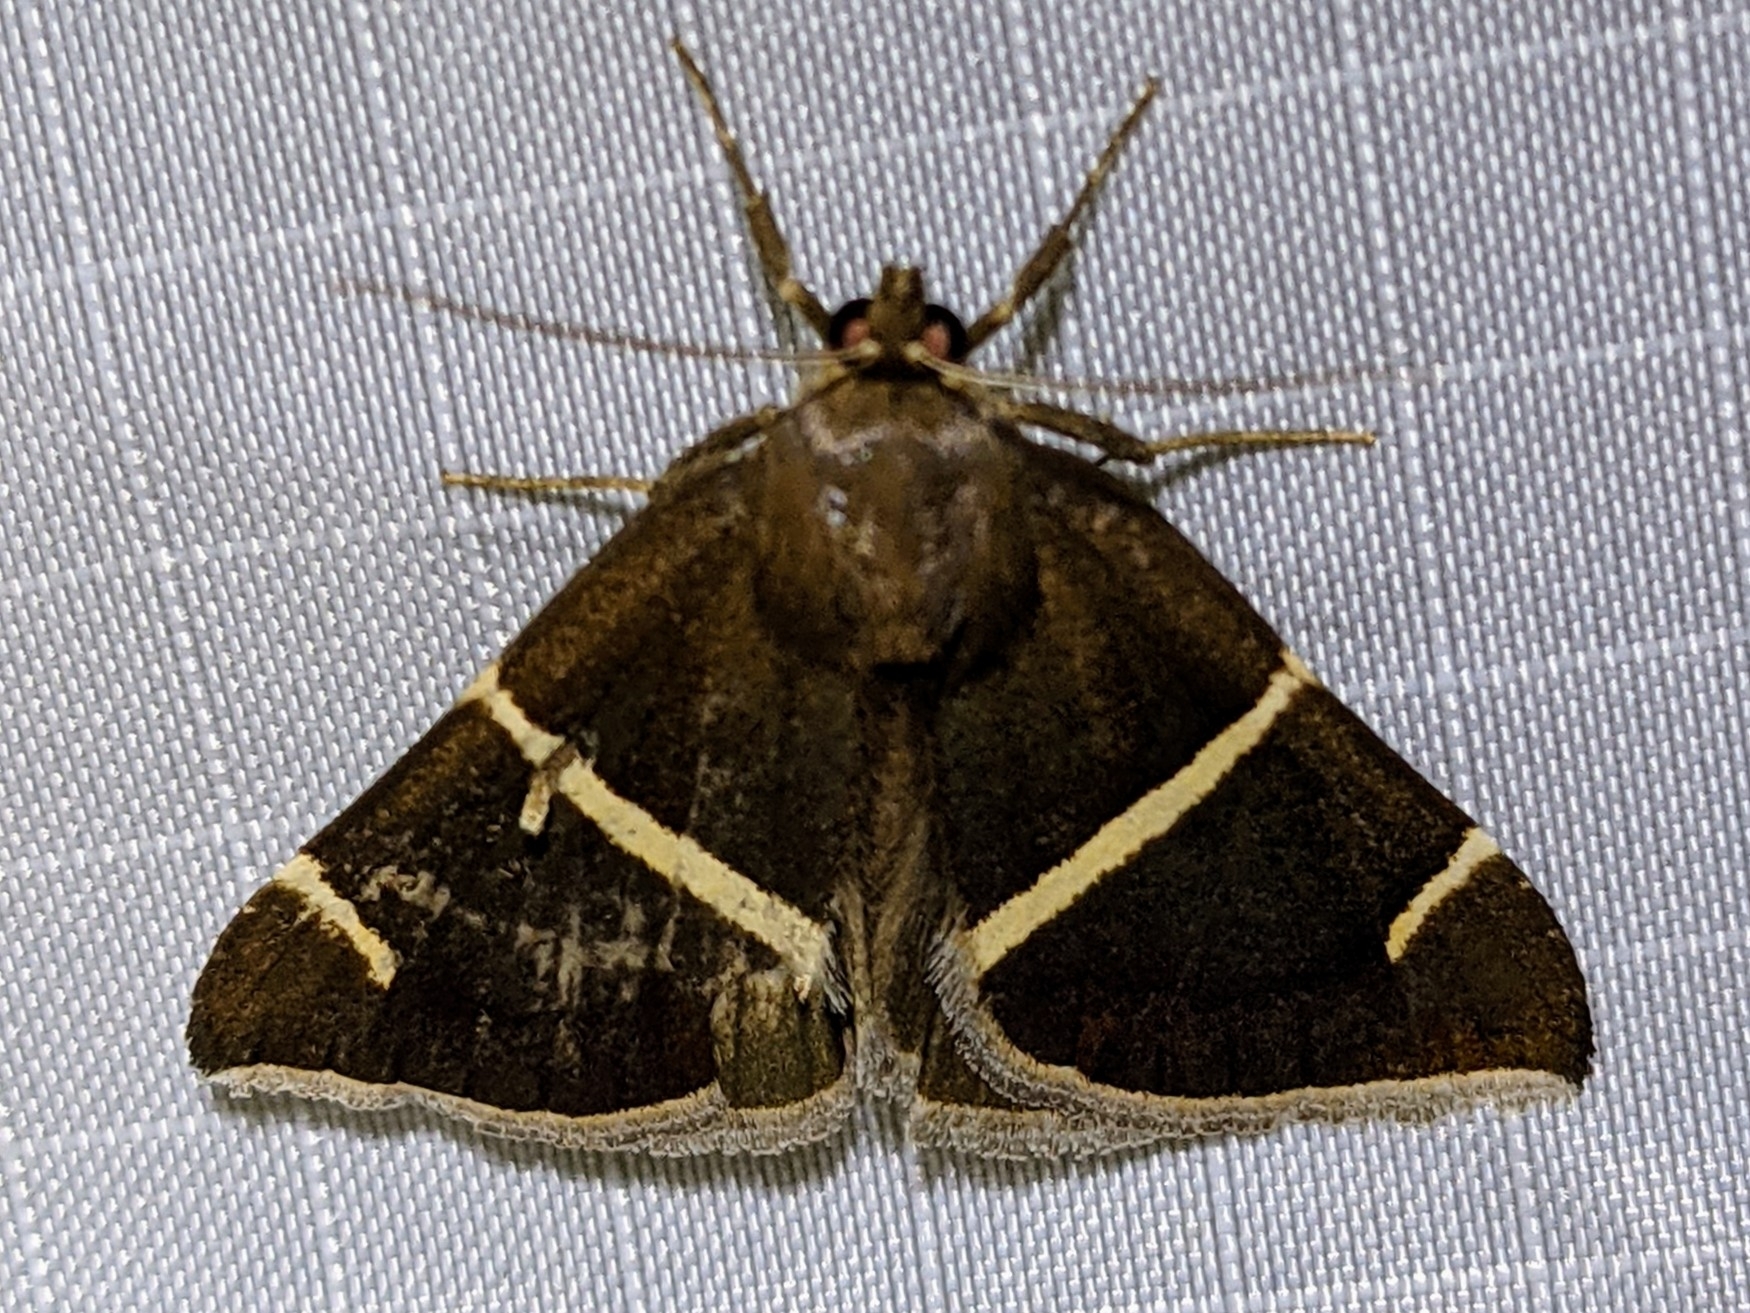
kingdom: Animalia
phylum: Arthropoda
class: Insecta
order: Lepidoptera
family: Erebidae
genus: Argyrostrotis
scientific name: Argyrostrotis anilis
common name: Short-lined chocolate
